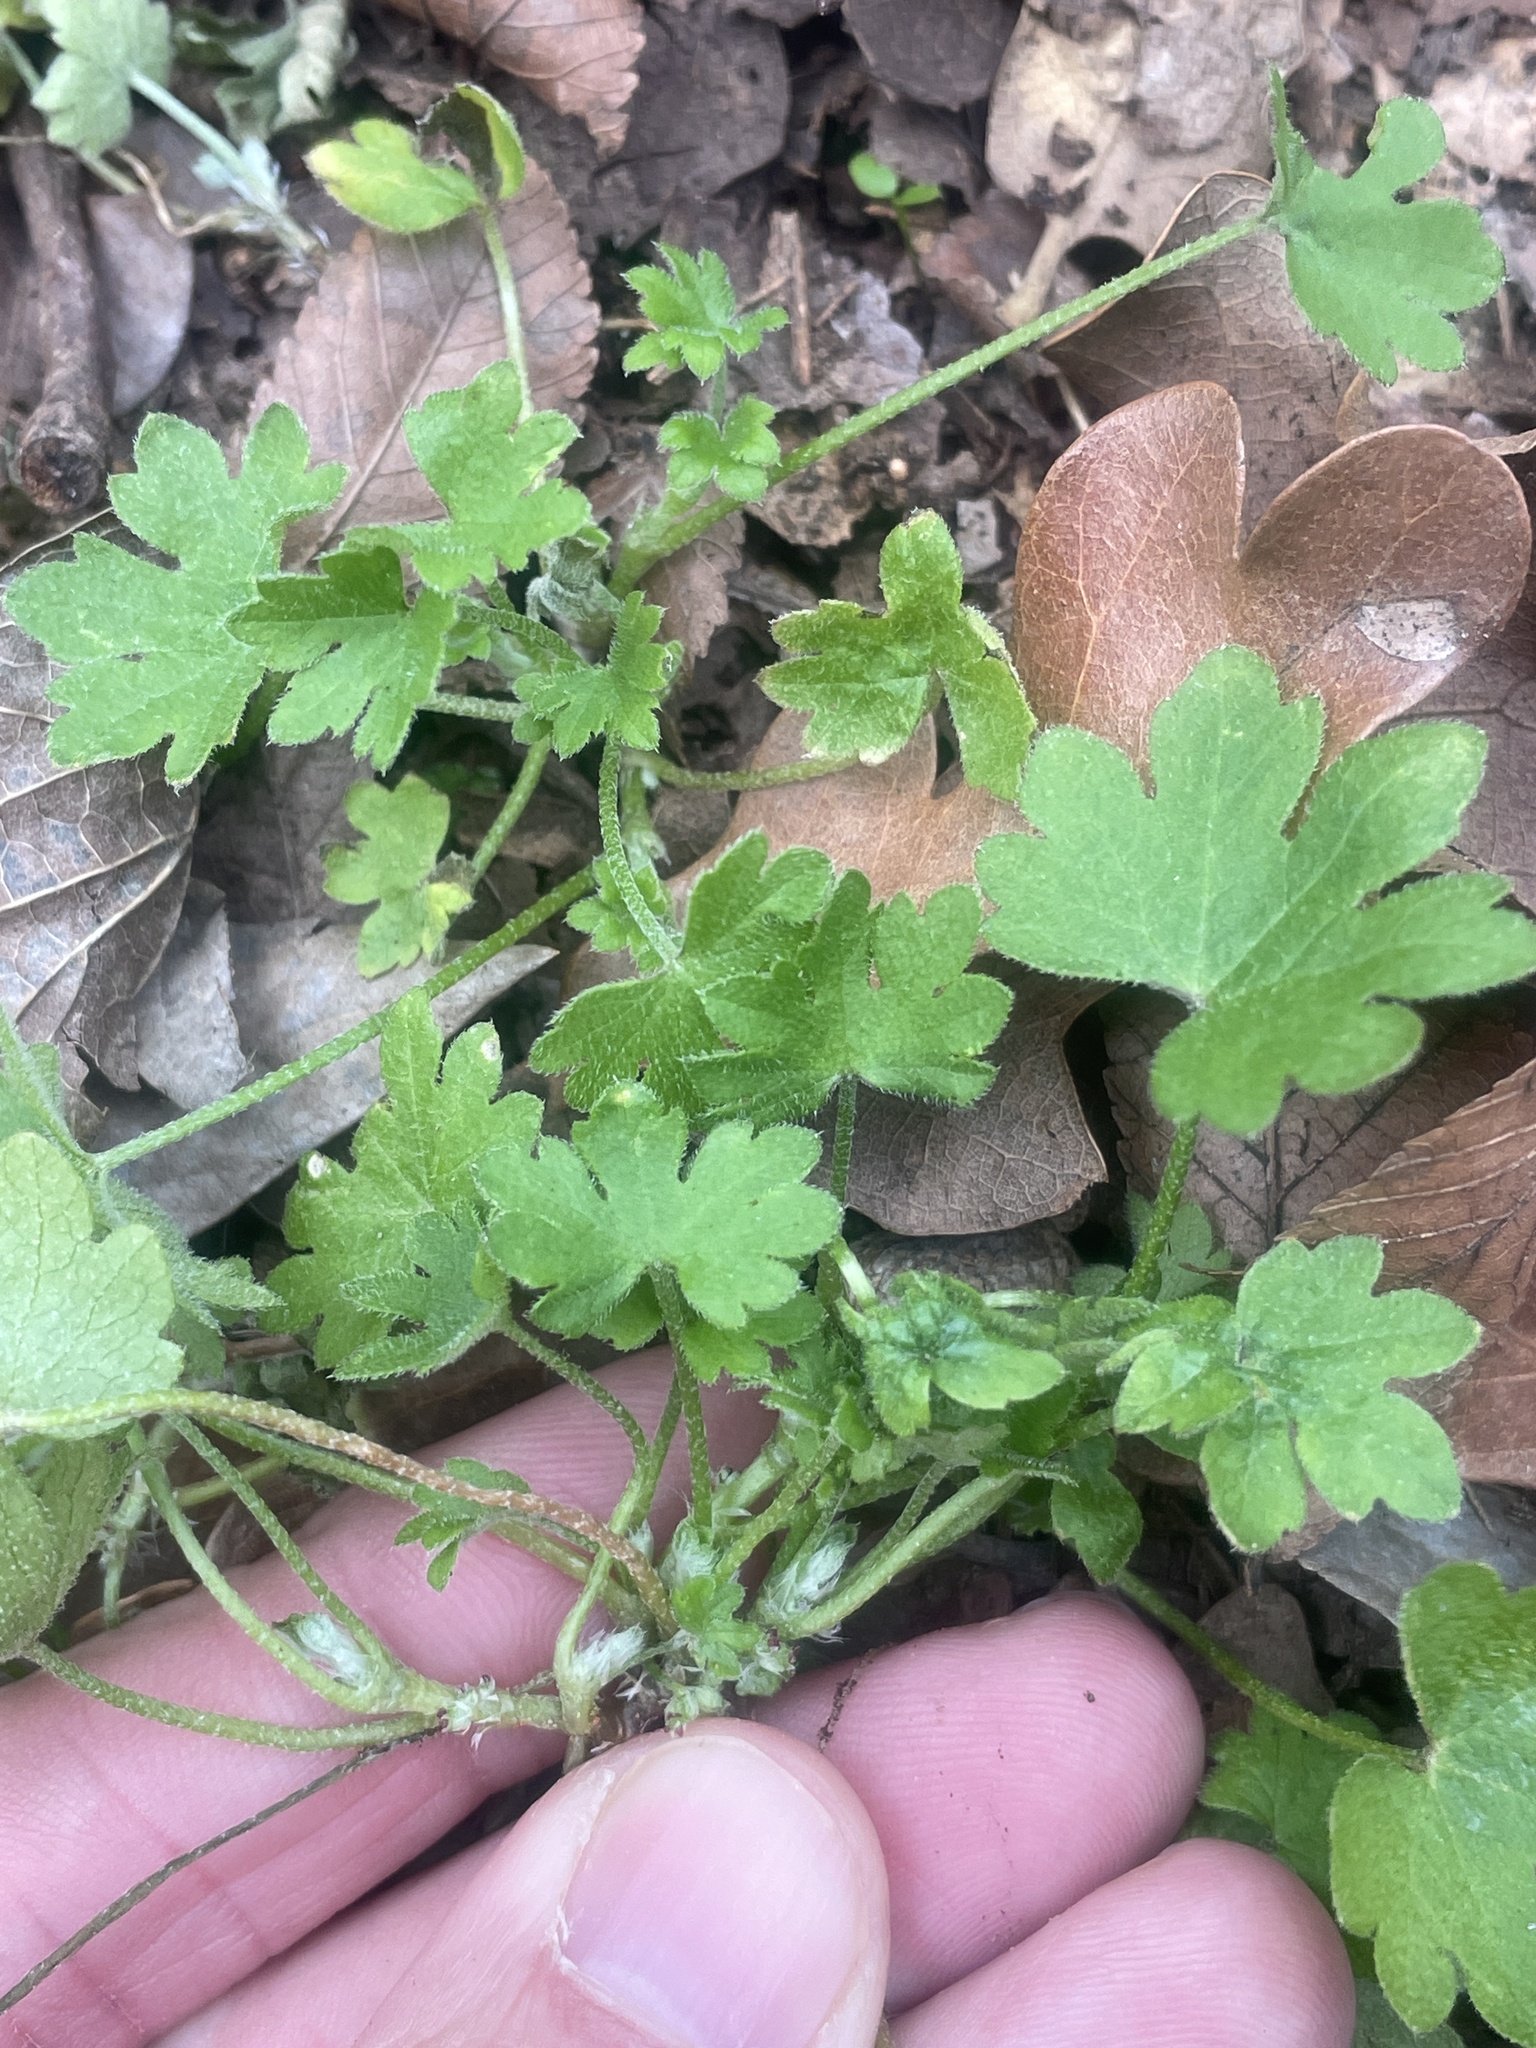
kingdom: Plantae
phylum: Tracheophyta
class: Magnoliopsida
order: Apiales
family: Apiaceae
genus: Bowlesia
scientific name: Bowlesia incana
